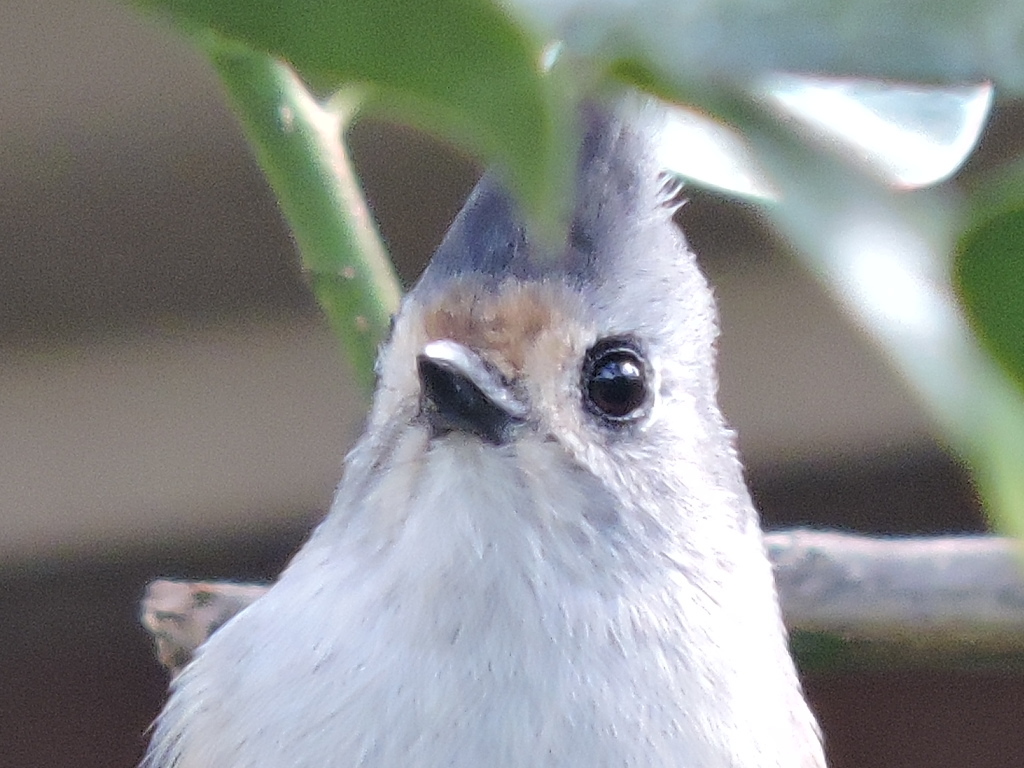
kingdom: Animalia
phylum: Chordata
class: Aves
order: Passeriformes
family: Paridae
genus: Baeolophus
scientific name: Baeolophus
